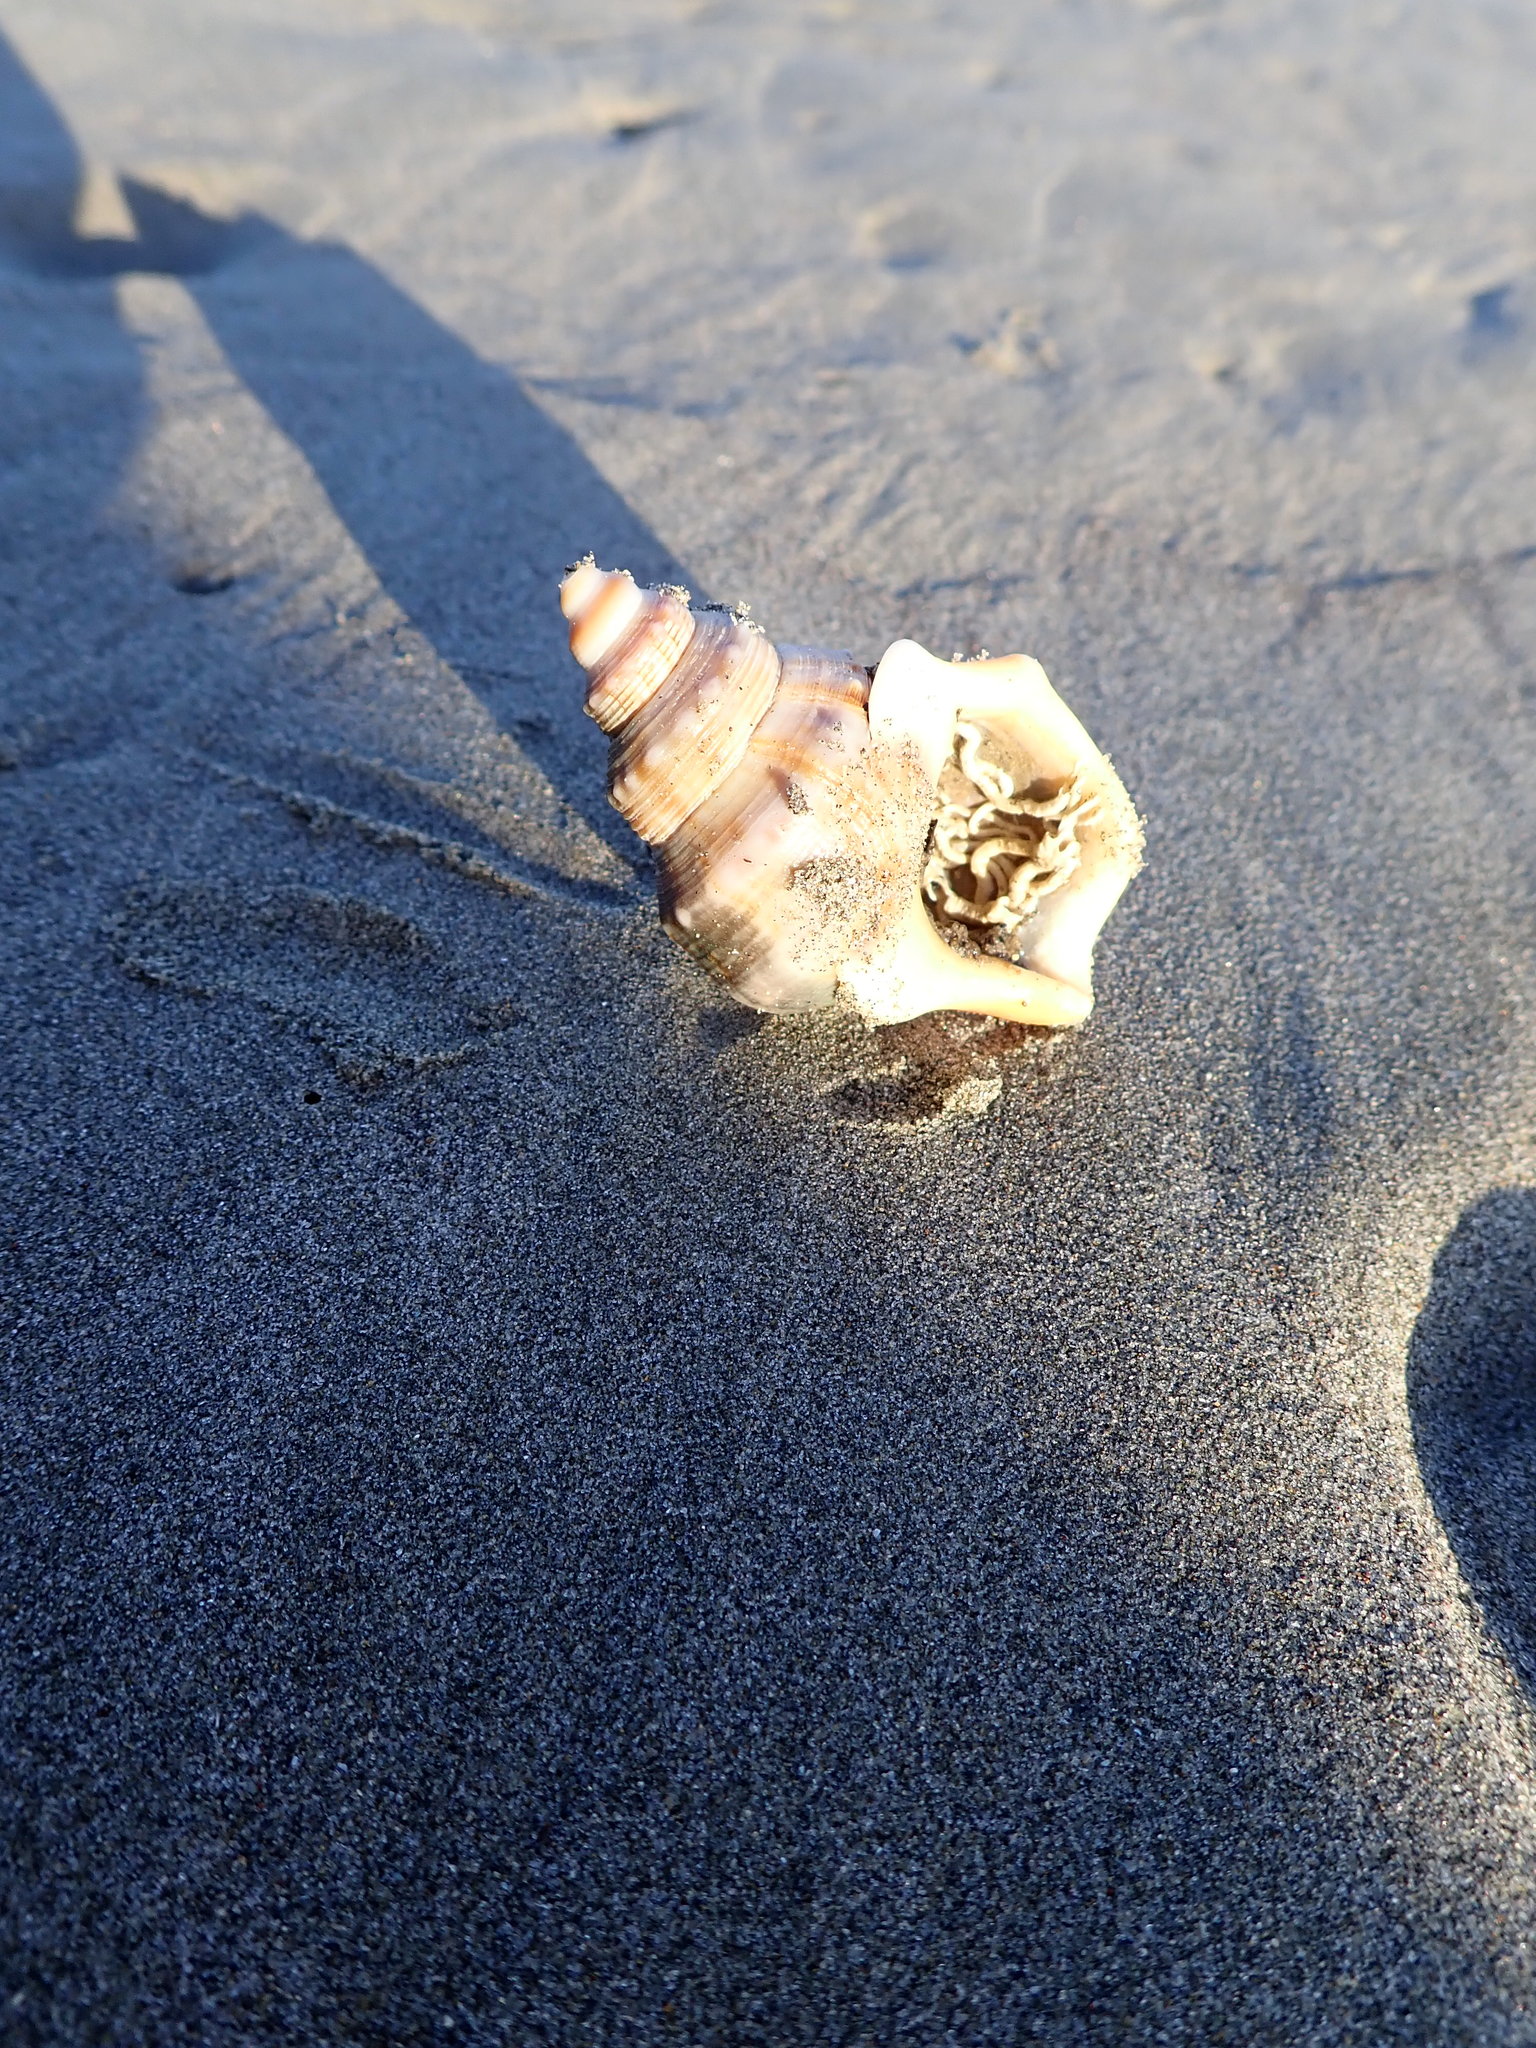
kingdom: Animalia
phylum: Mollusca
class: Gastropoda
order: Littorinimorpha
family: Struthiolariidae
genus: Struthiolaria
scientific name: Struthiolaria papulosa
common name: Large ostrich foot
